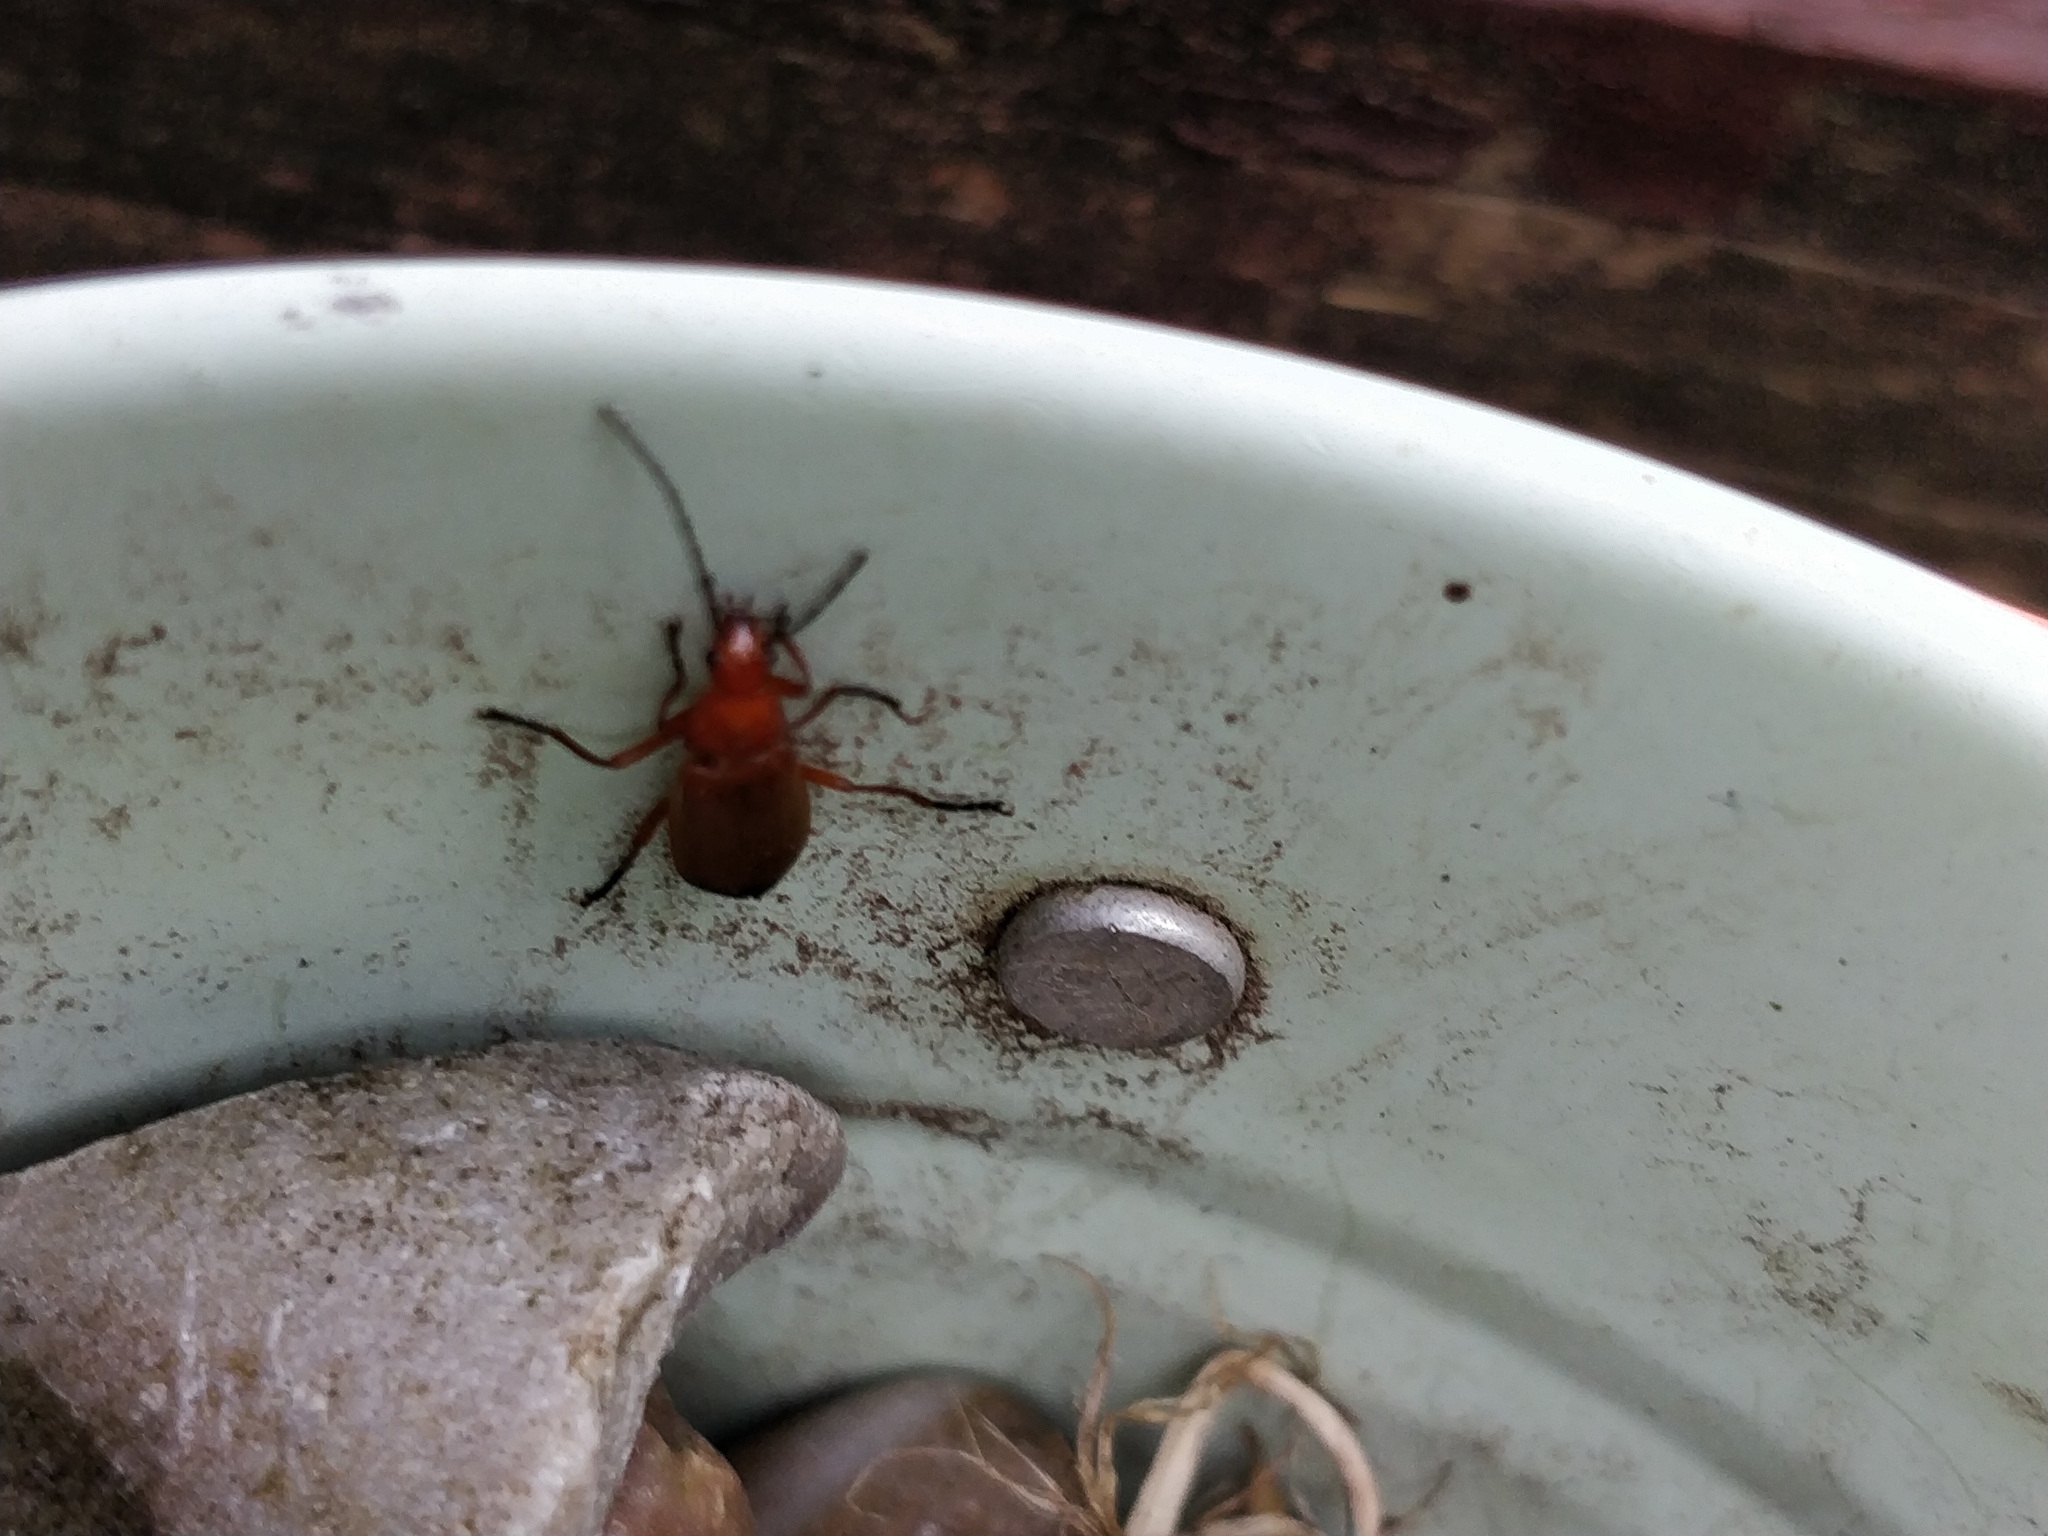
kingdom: Animalia
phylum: Arthropoda
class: Insecta
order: Coleoptera
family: Cantharidae
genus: Rhagonycha
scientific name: Rhagonycha fulva
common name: Common red soldier beetle
